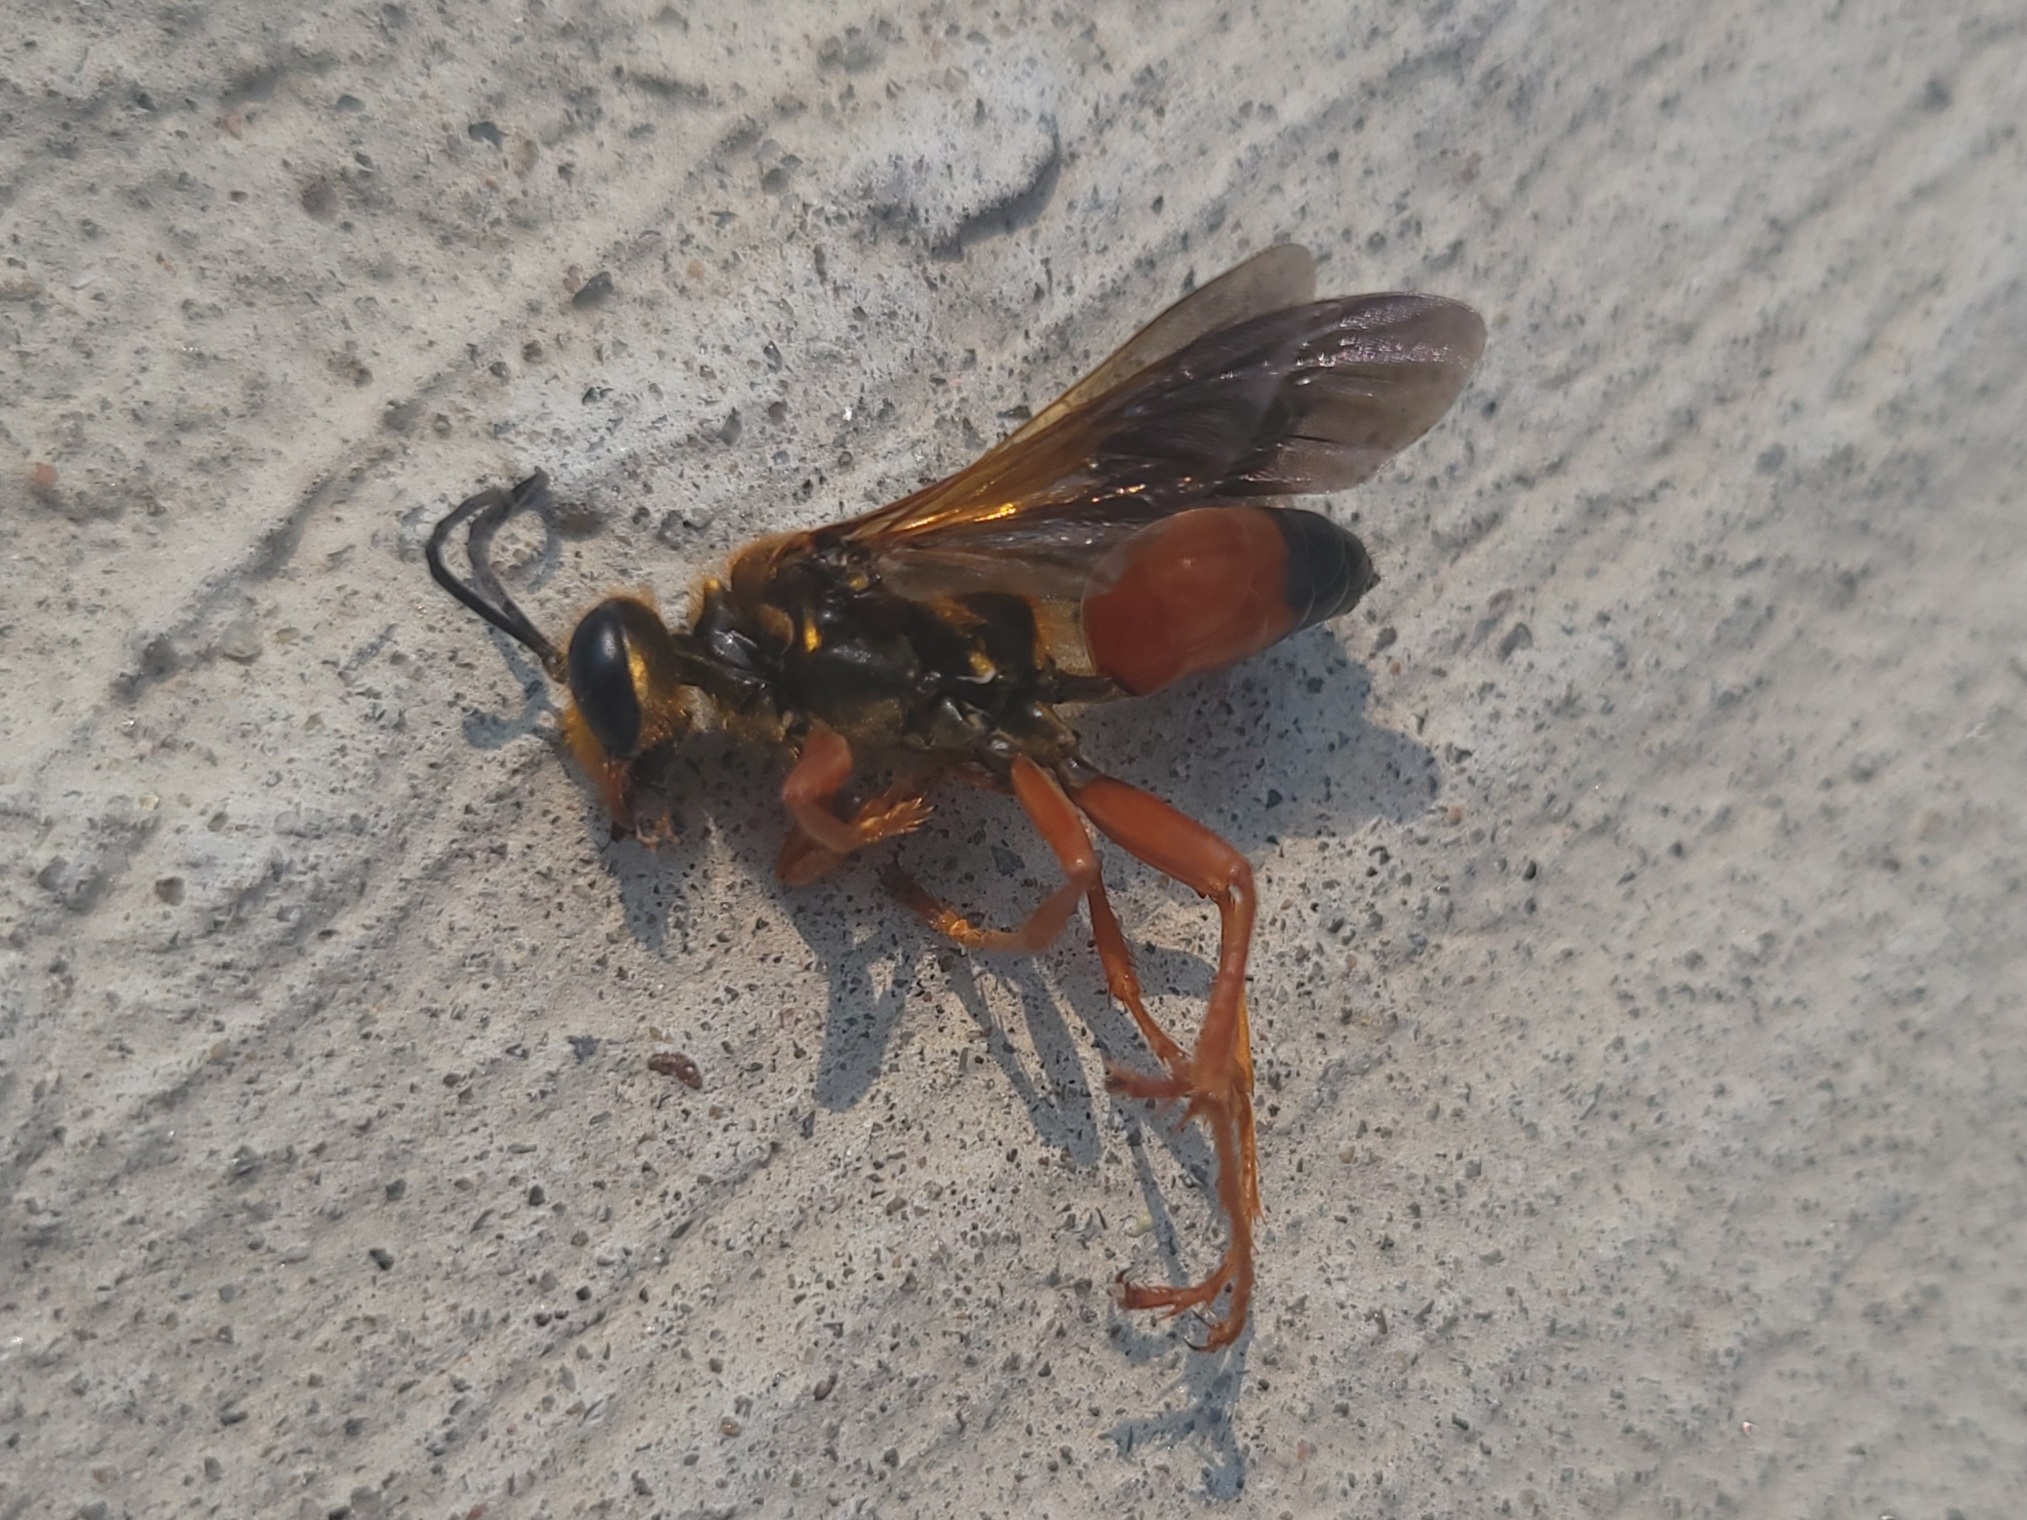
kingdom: Animalia
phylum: Arthropoda
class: Insecta
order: Hymenoptera
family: Sphecidae
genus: Sphex
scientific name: Sphex ichneumoneus
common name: Great golden digger wasp
